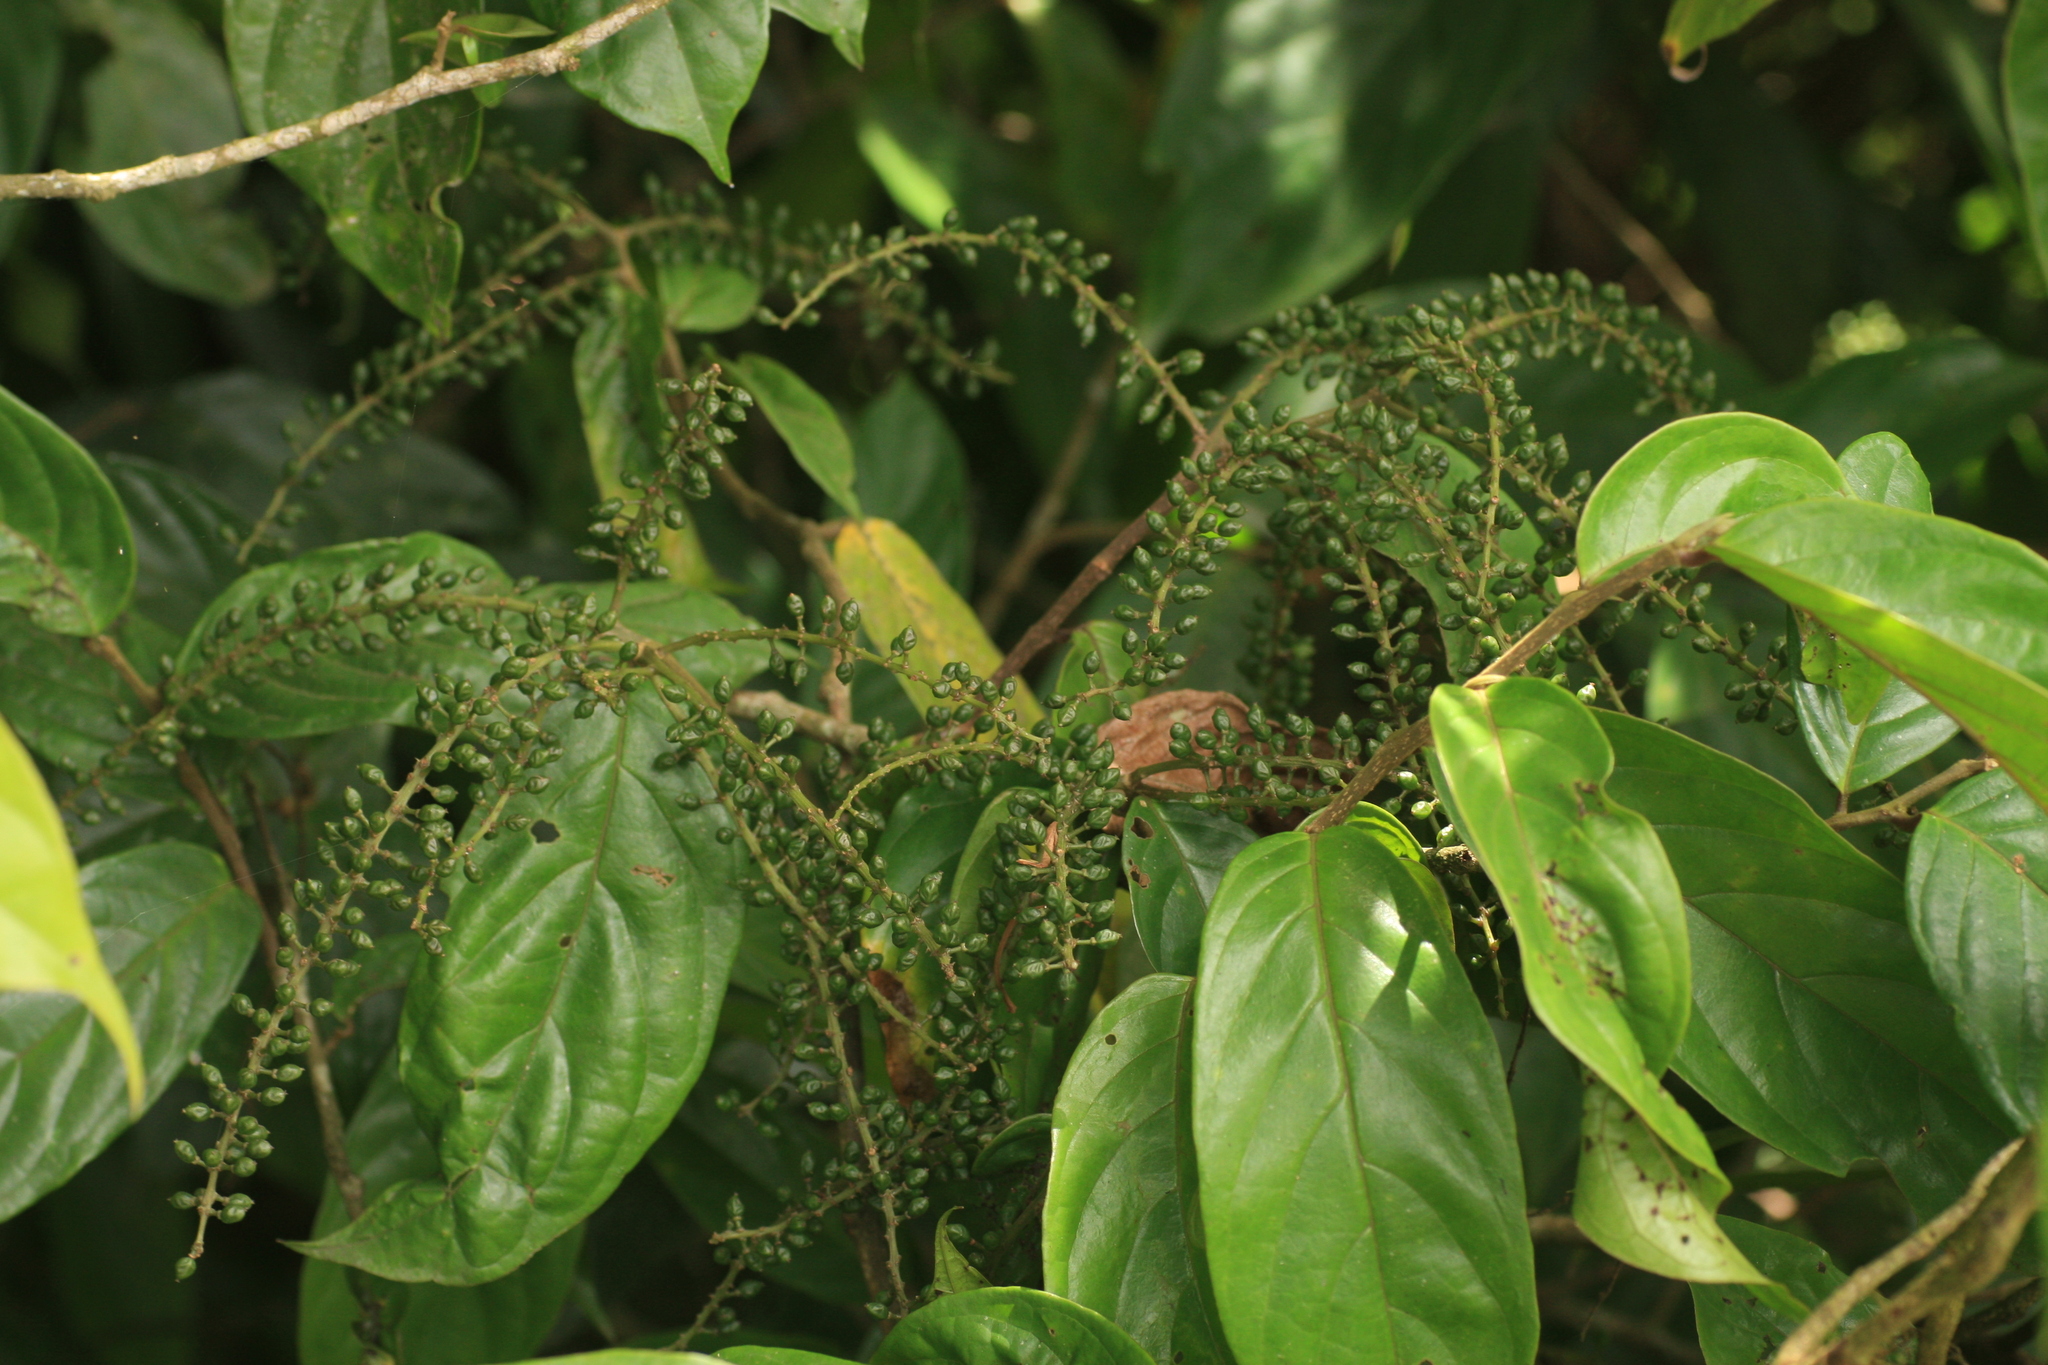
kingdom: Plantae
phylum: Tracheophyta
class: Magnoliopsida
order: Malpighiales
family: Phyllanthaceae
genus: Antidesma
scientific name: Antidesma montanum
